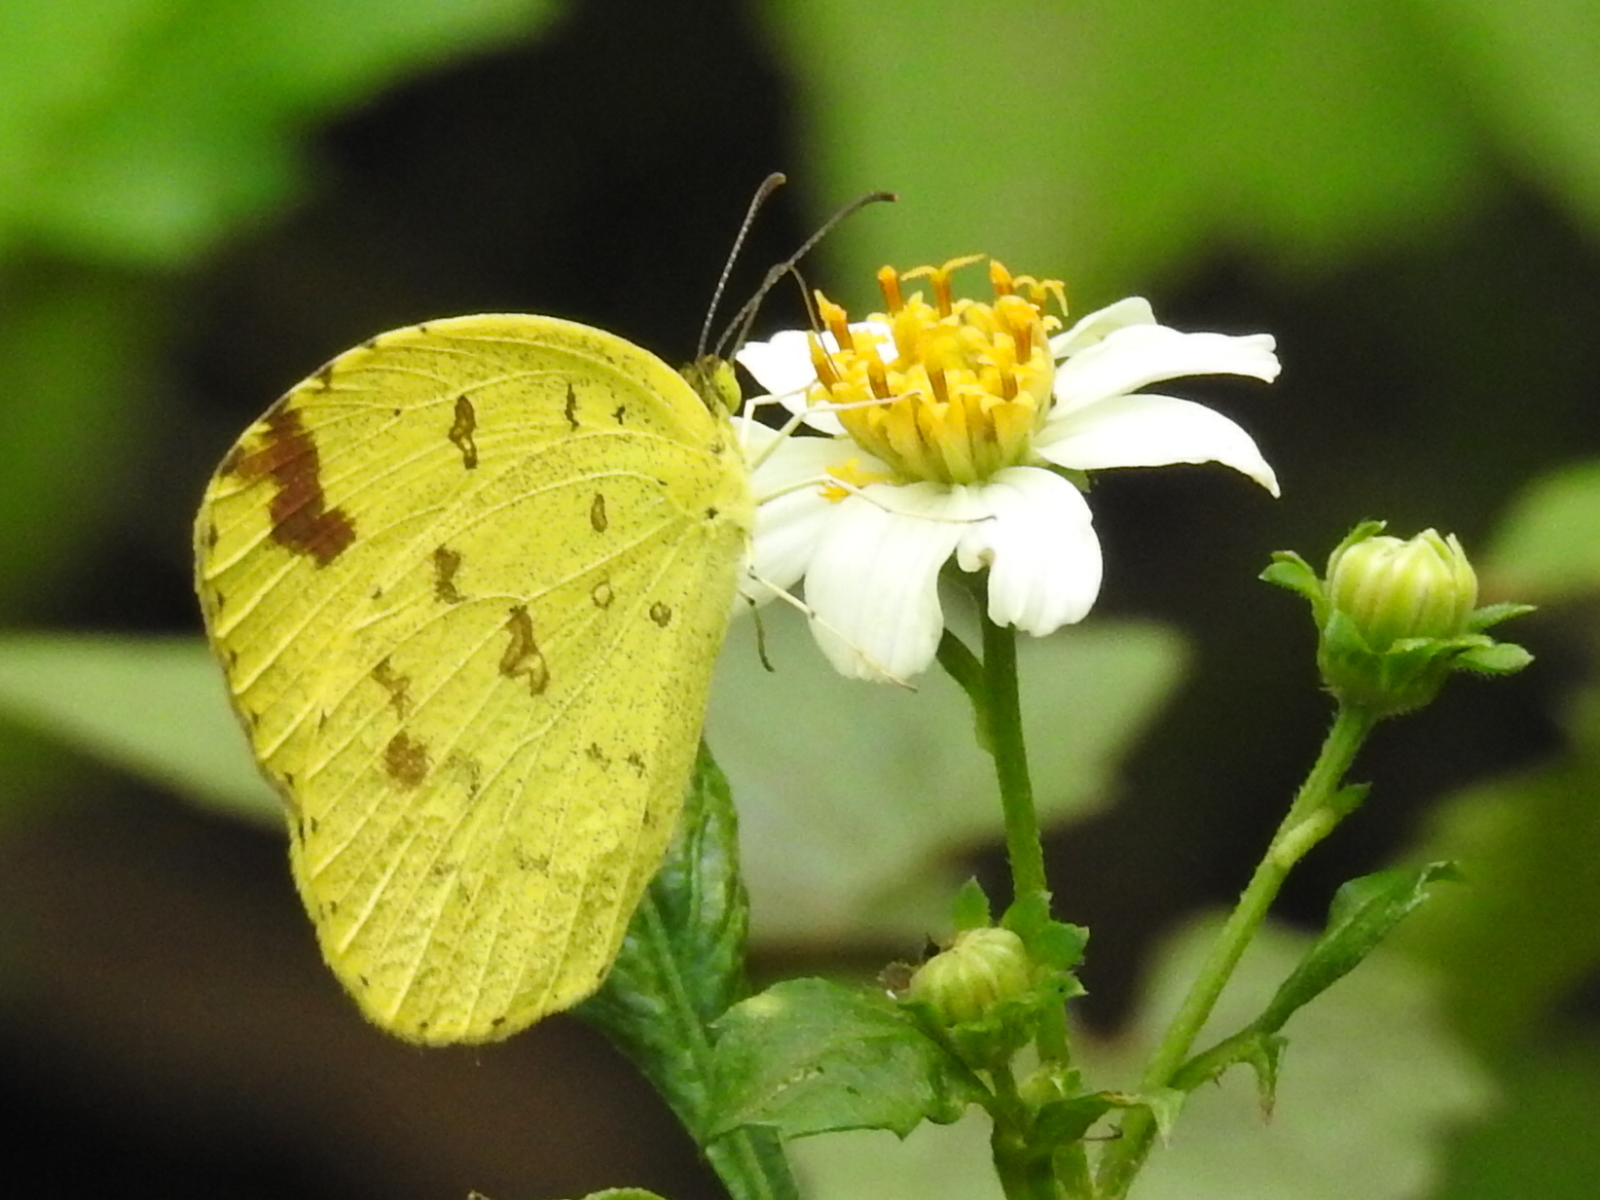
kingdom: Animalia
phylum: Arthropoda
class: Insecta
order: Lepidoptera
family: Pieridae
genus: Eurema
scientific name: Eurema blanda
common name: Three-spot grass yellow
